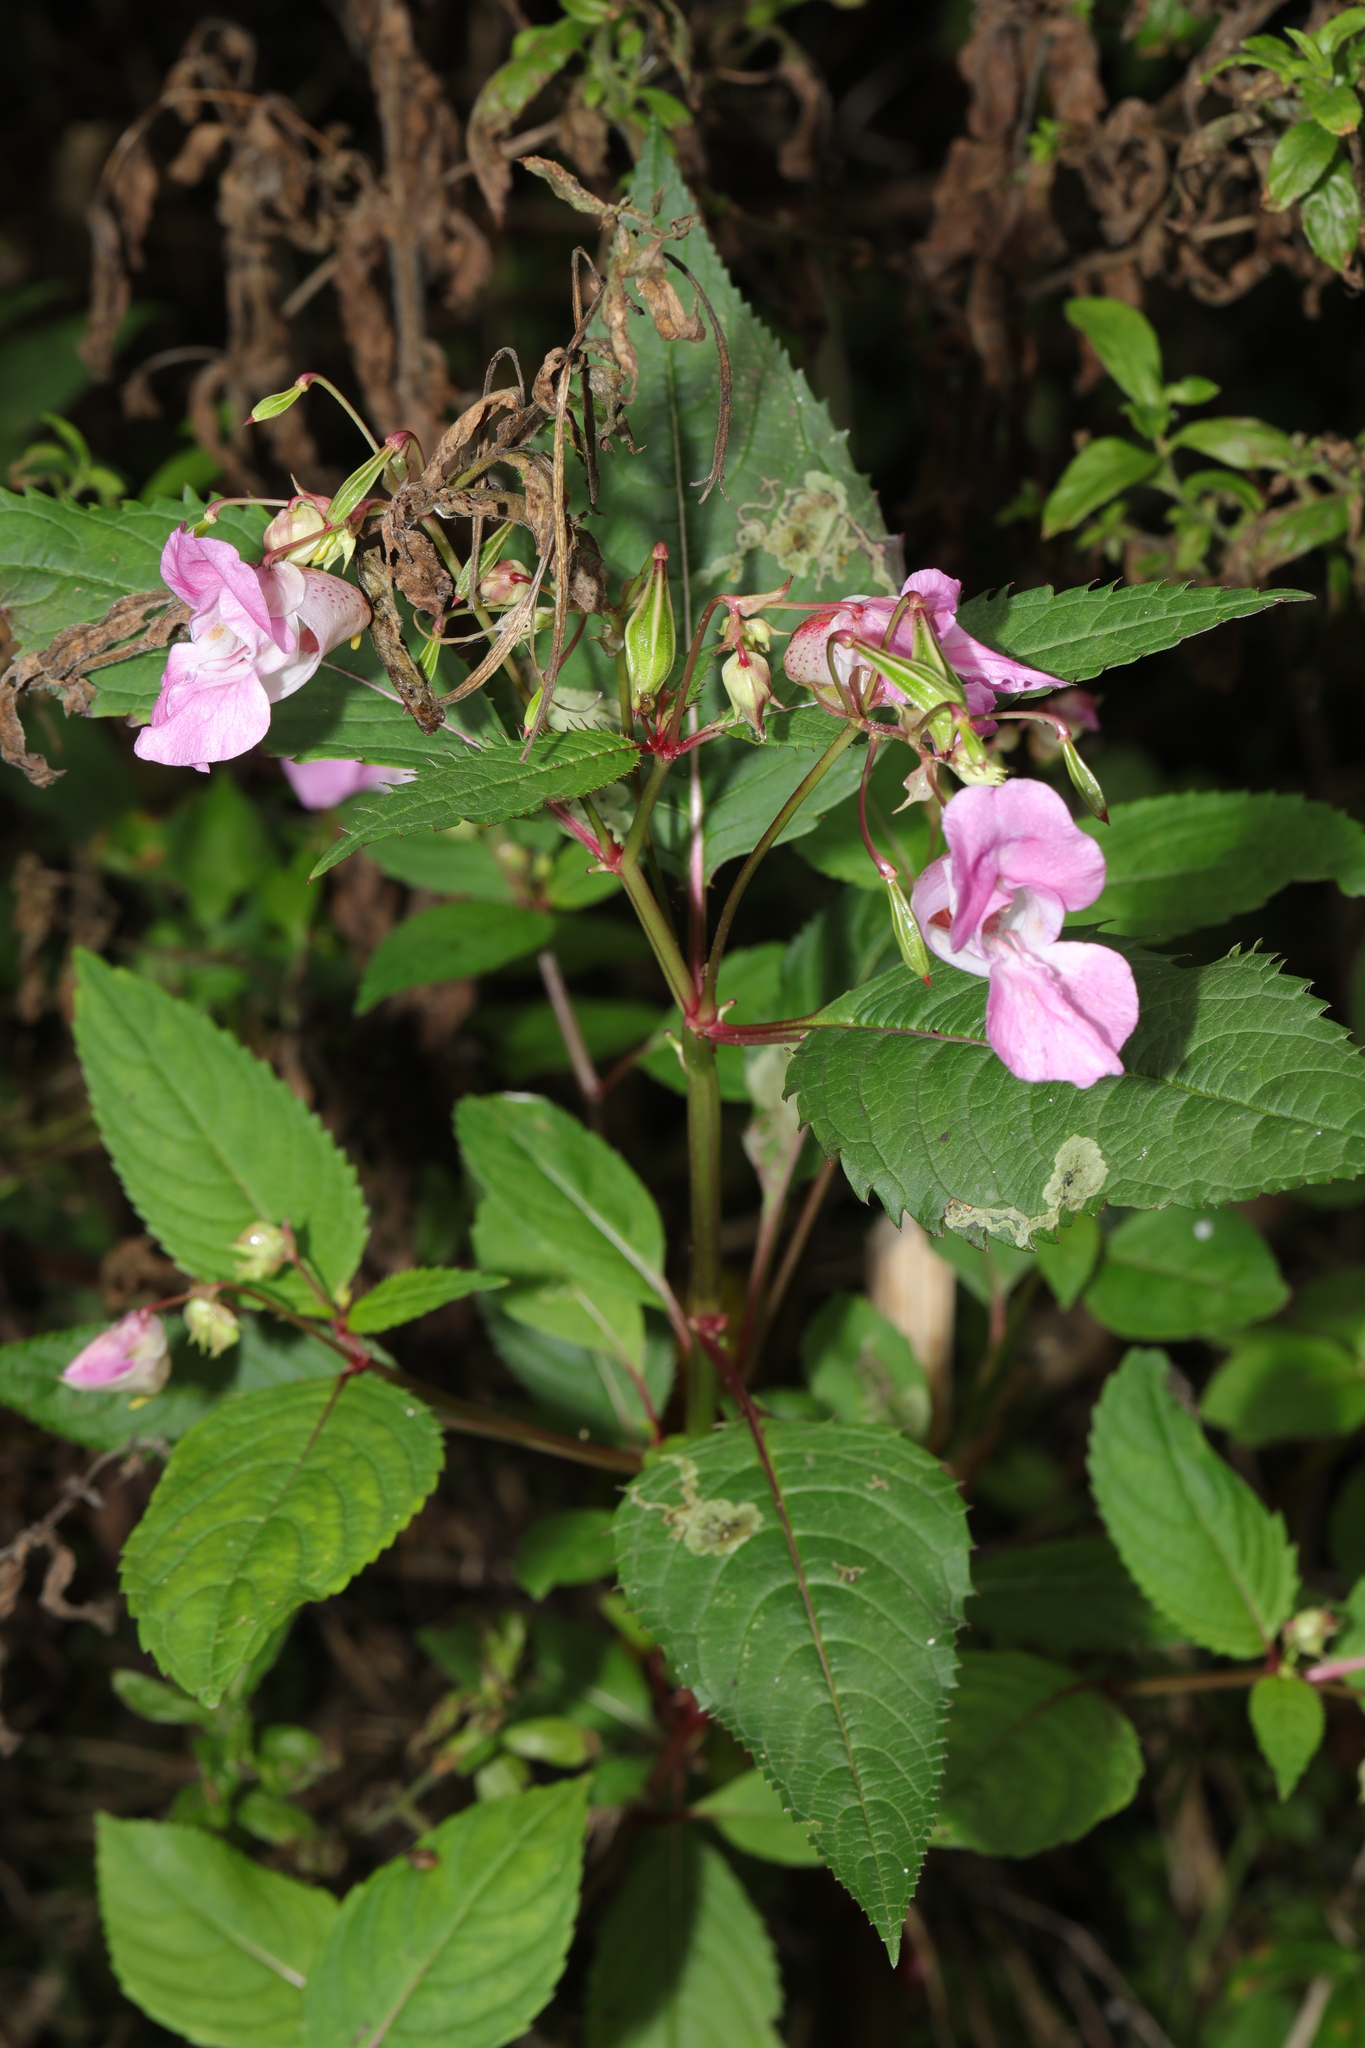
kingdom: Plantae
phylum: Tracheophyta
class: Magnoliopsida
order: Ericales
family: Balsaminaceae
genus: Impatiens
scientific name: Impatiens glandulifera
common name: Himalayan balsam
